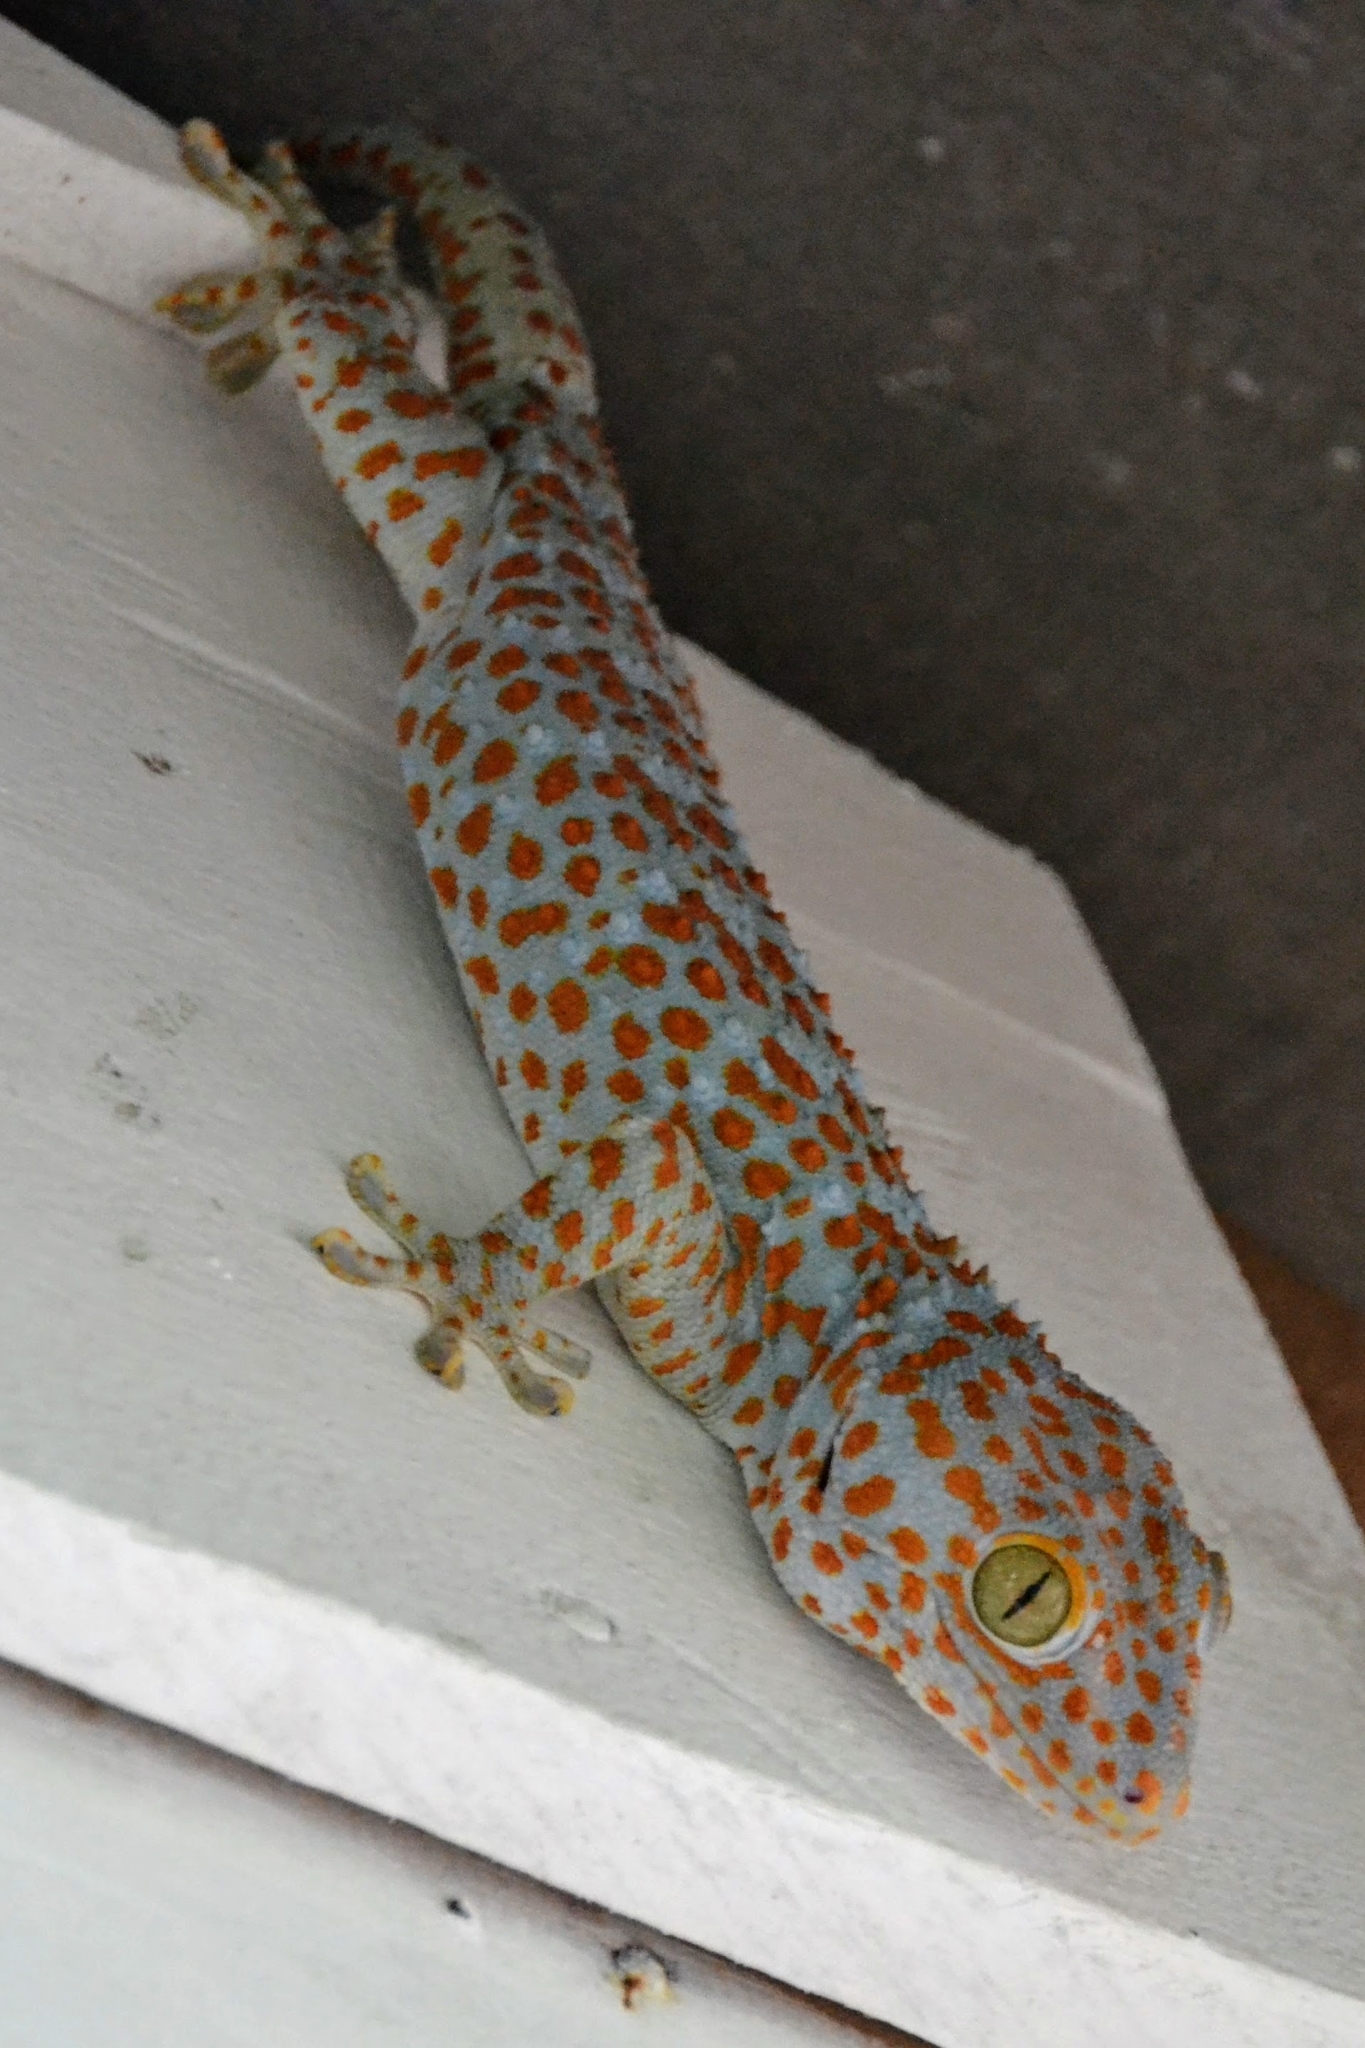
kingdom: Animalia
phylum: Chordata
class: Squamata
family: Gekkonidae
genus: Gekko
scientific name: Gekko gecko
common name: Tokay gecko
